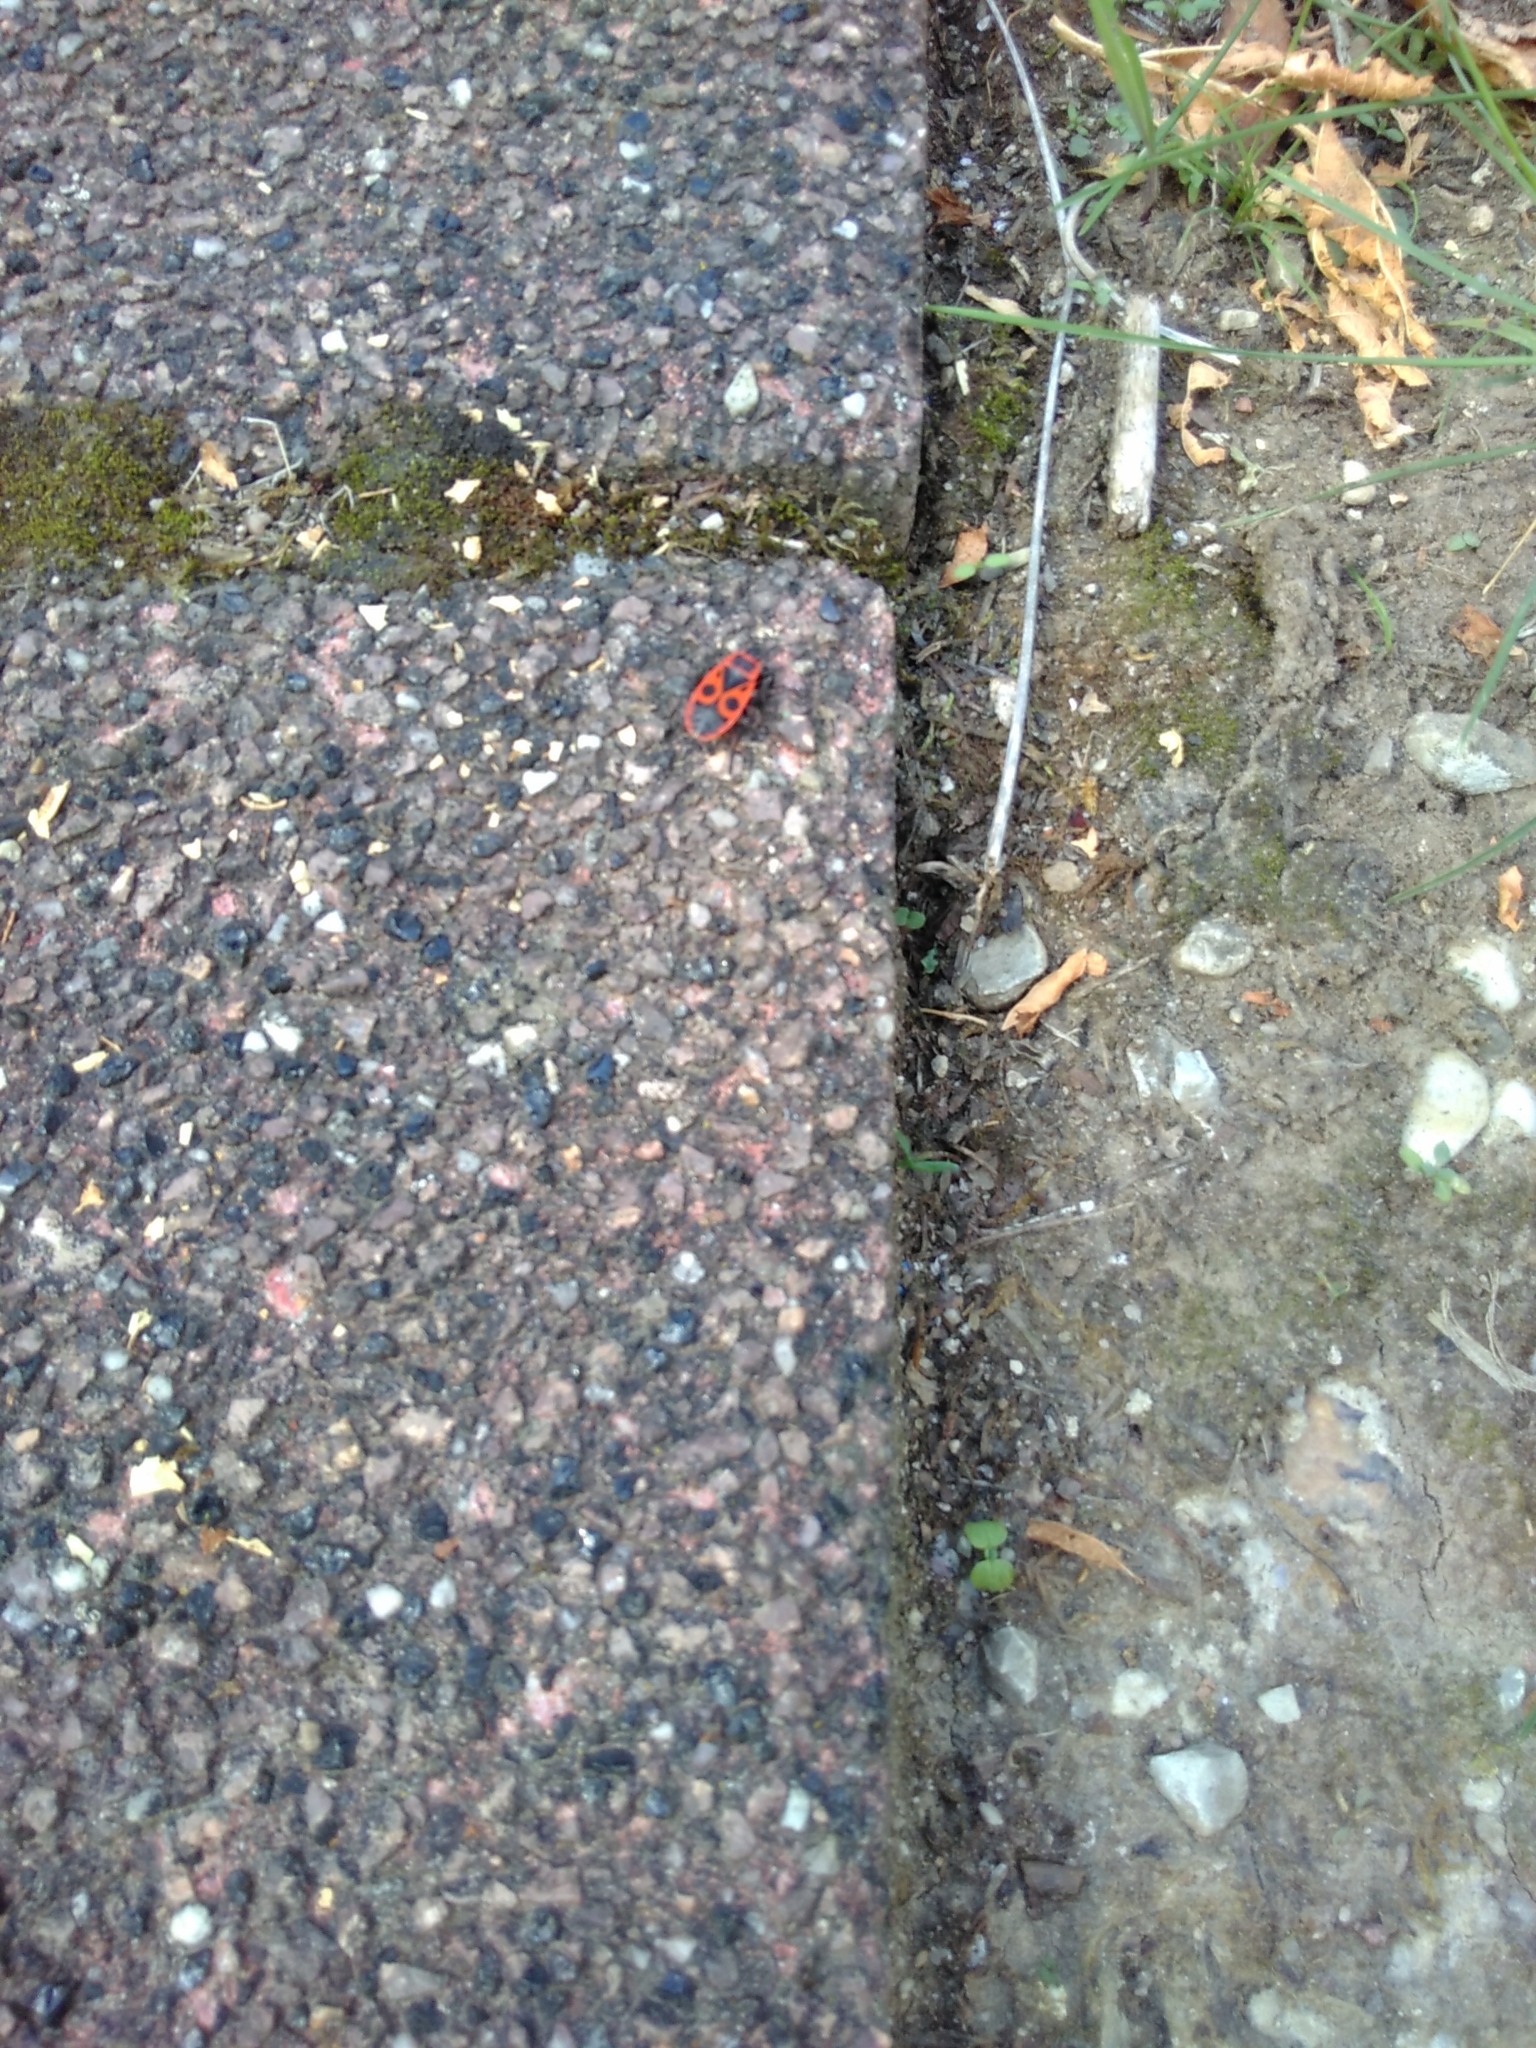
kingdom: Animalia
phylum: Arthropoda
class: Insecta
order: Hemiptera
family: Pyrrhocoridae
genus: Pyrrhocoris
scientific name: Pyrrhocoris apterus
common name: Firebug
